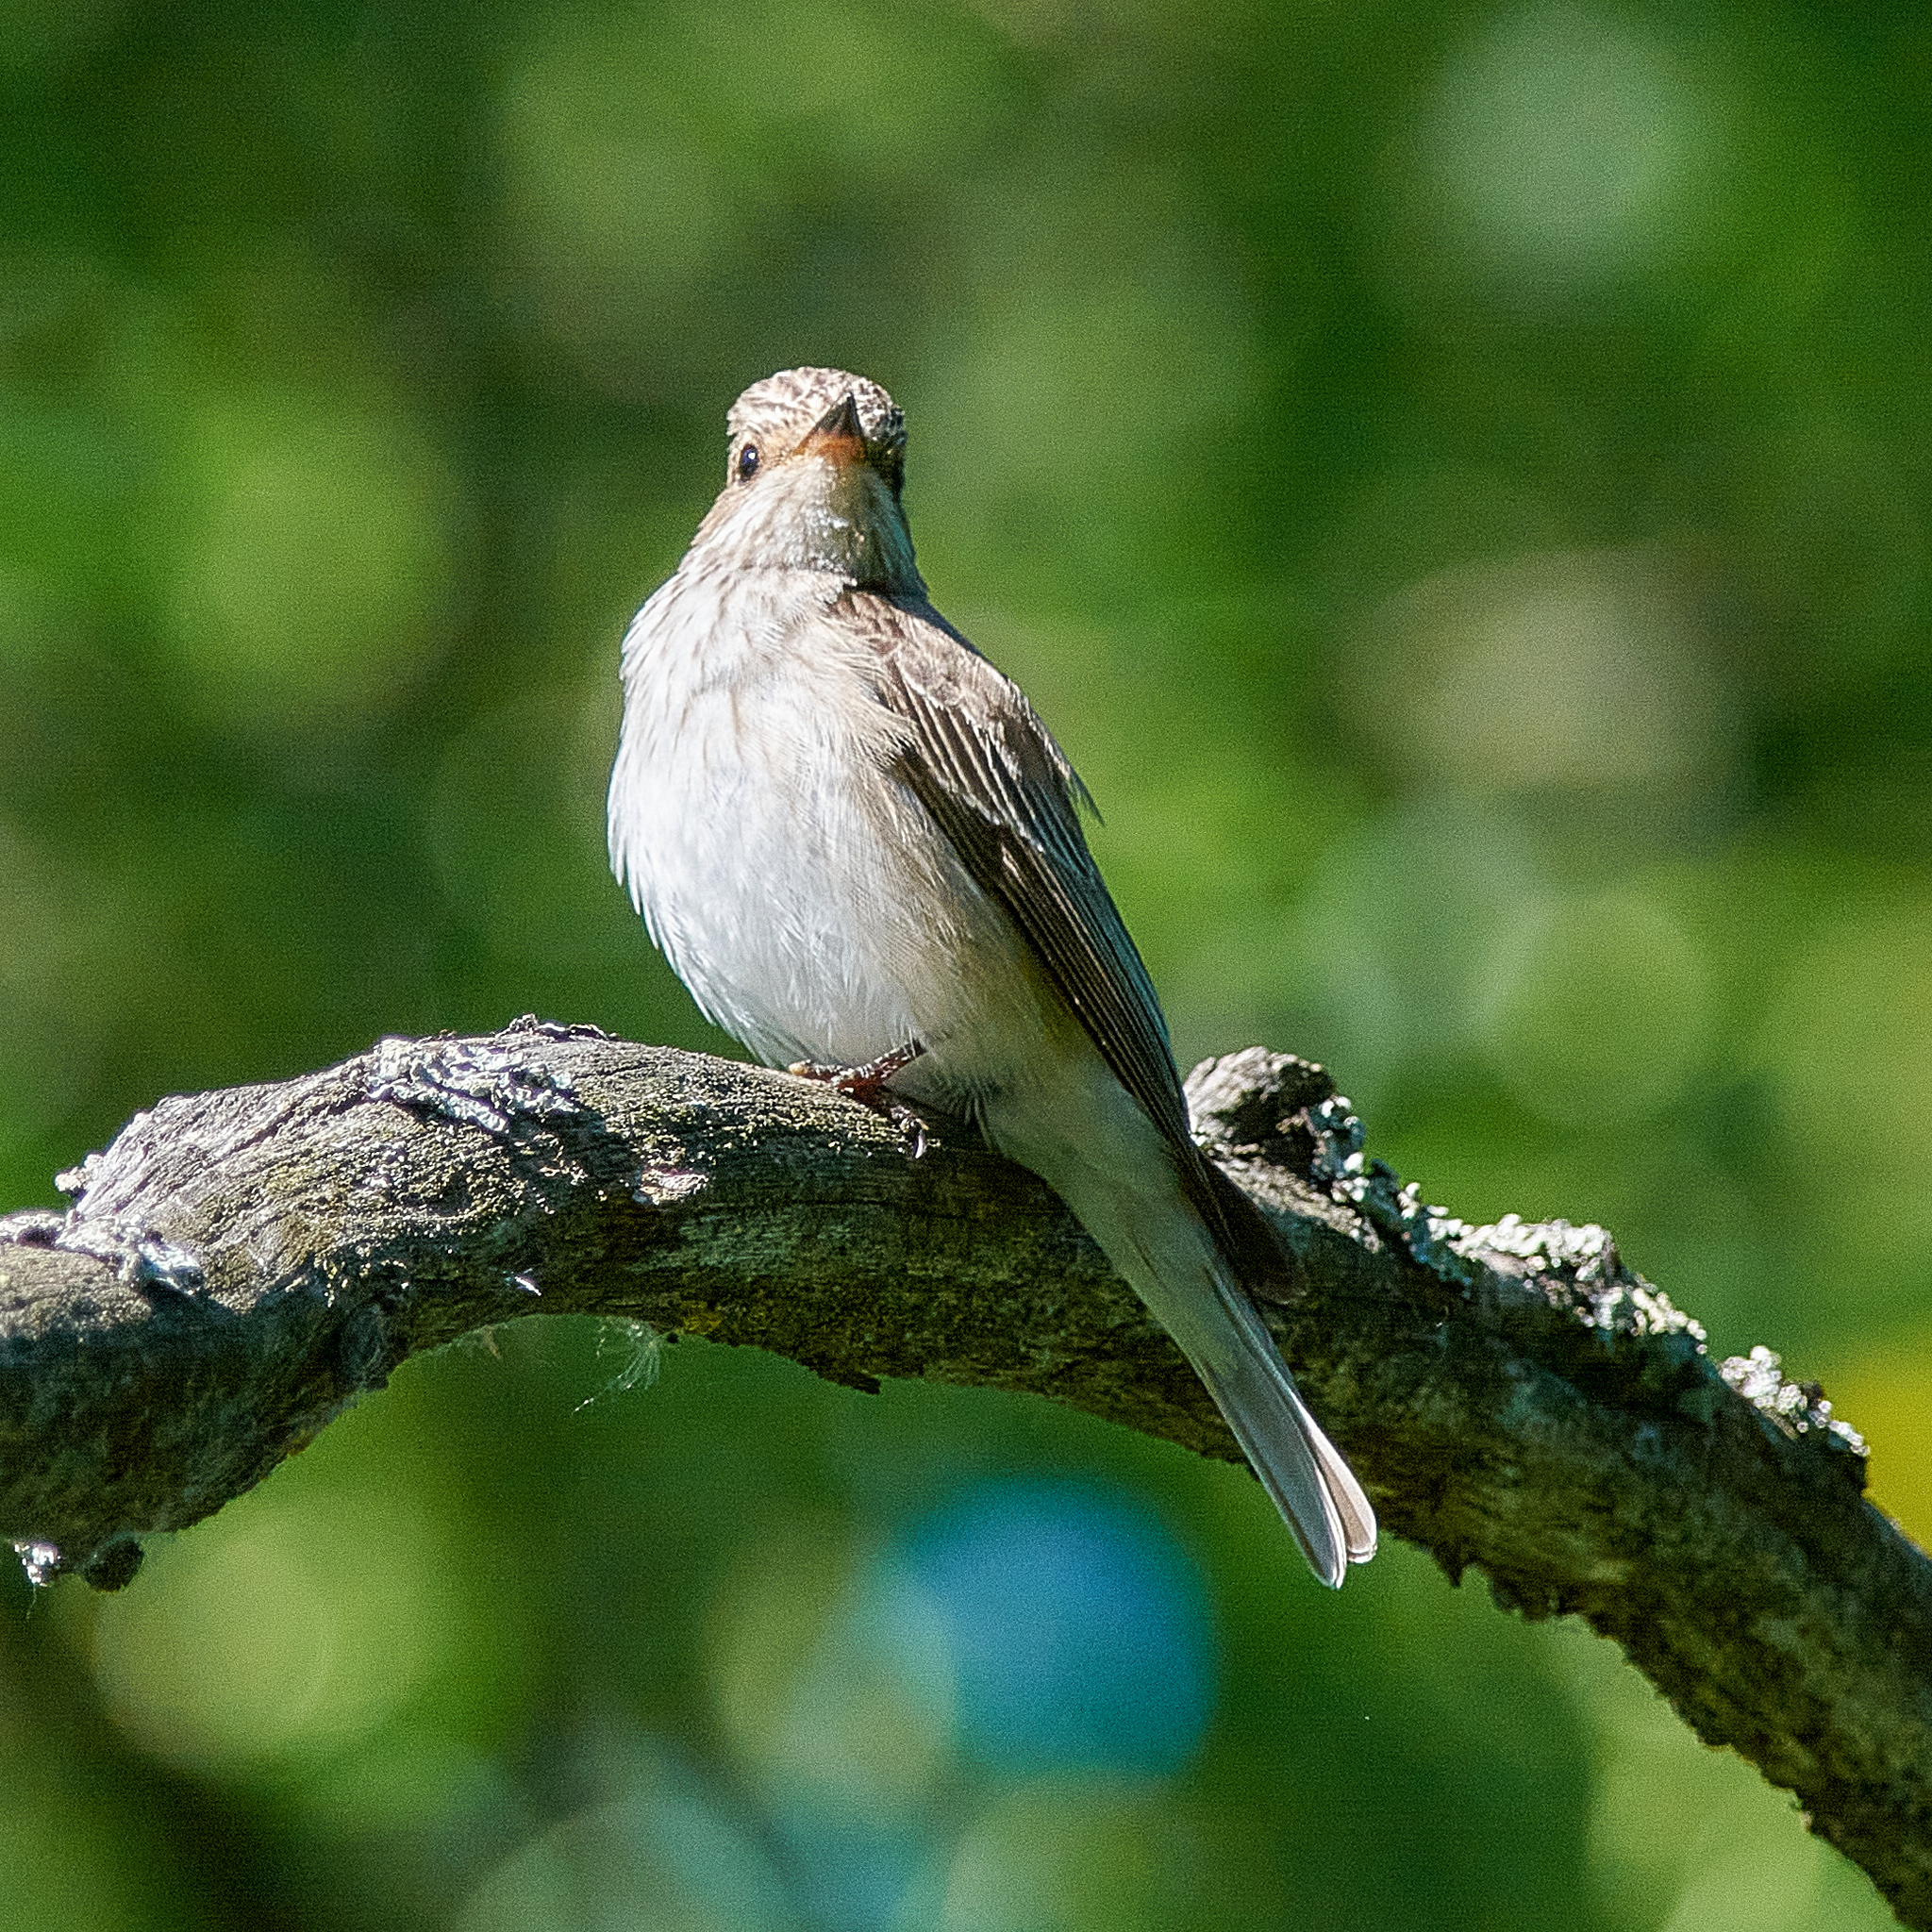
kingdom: Animalia
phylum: Chordata
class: Aves
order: Passeriformes
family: Muscicapidae
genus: Muscicapa
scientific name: Muscicapa striata
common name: Spotted flycatcher
